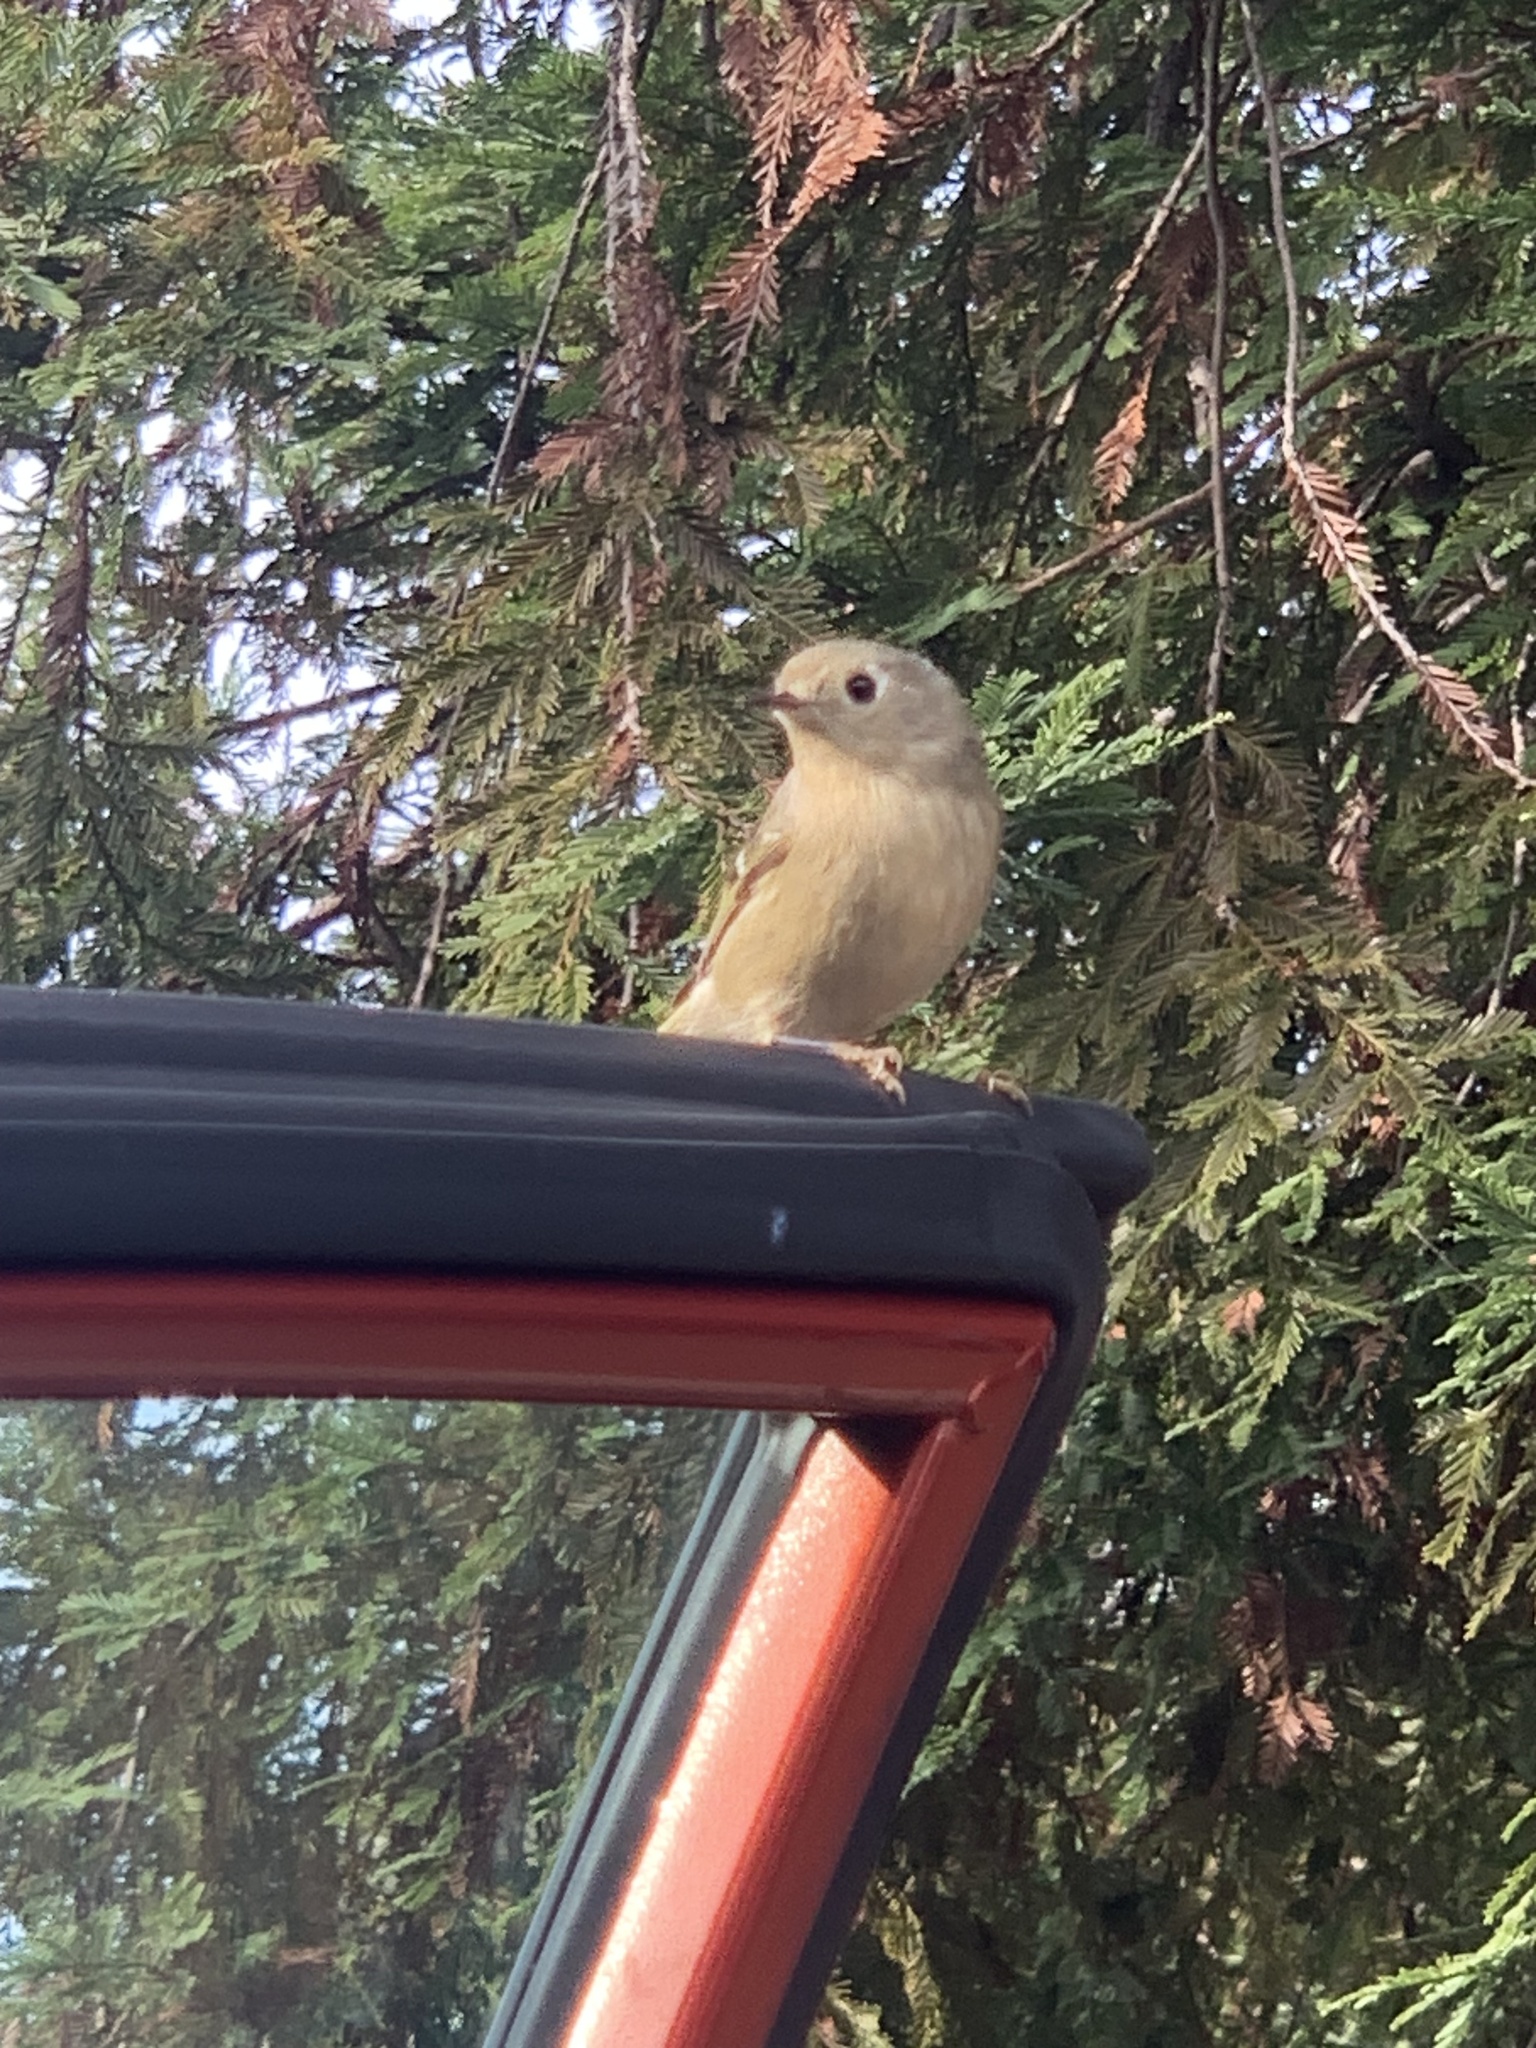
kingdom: Animalia
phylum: Chordata
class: Aves
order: Passeriformes
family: Regulidae
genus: Regulus
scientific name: Regulus calendula
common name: Ruby-crowned kinglet
